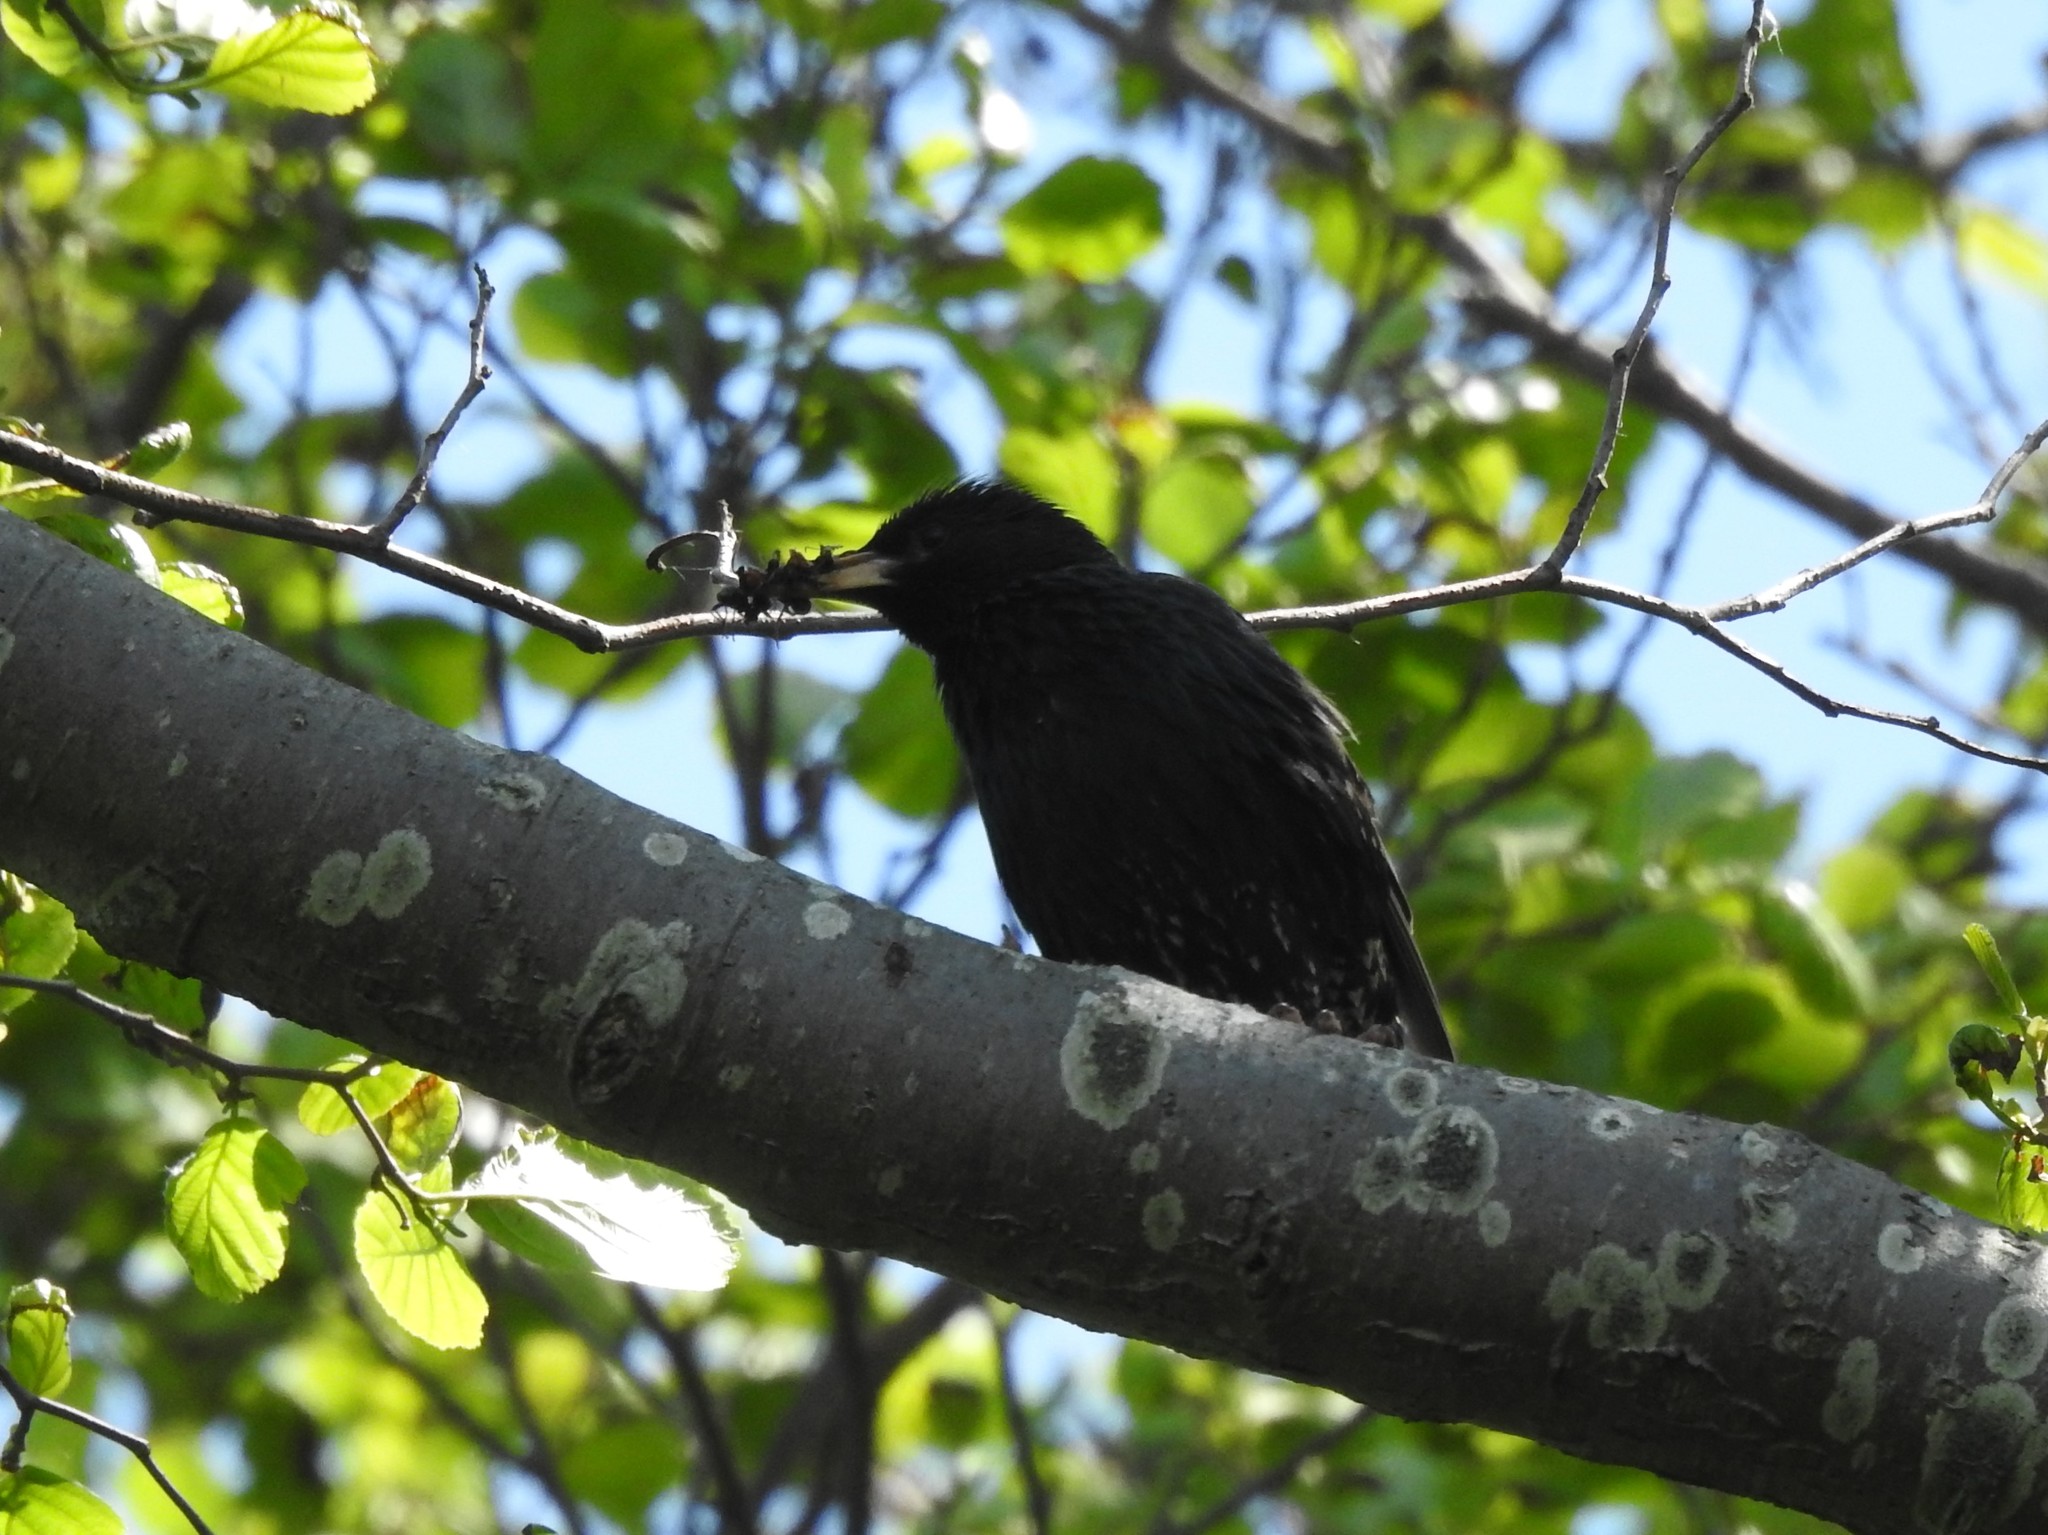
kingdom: Animalia
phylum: Chordata
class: Aves
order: Passeriformes
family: Sturnidae
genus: Sturnus
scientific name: Sturnus vulgaris
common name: Common starling
